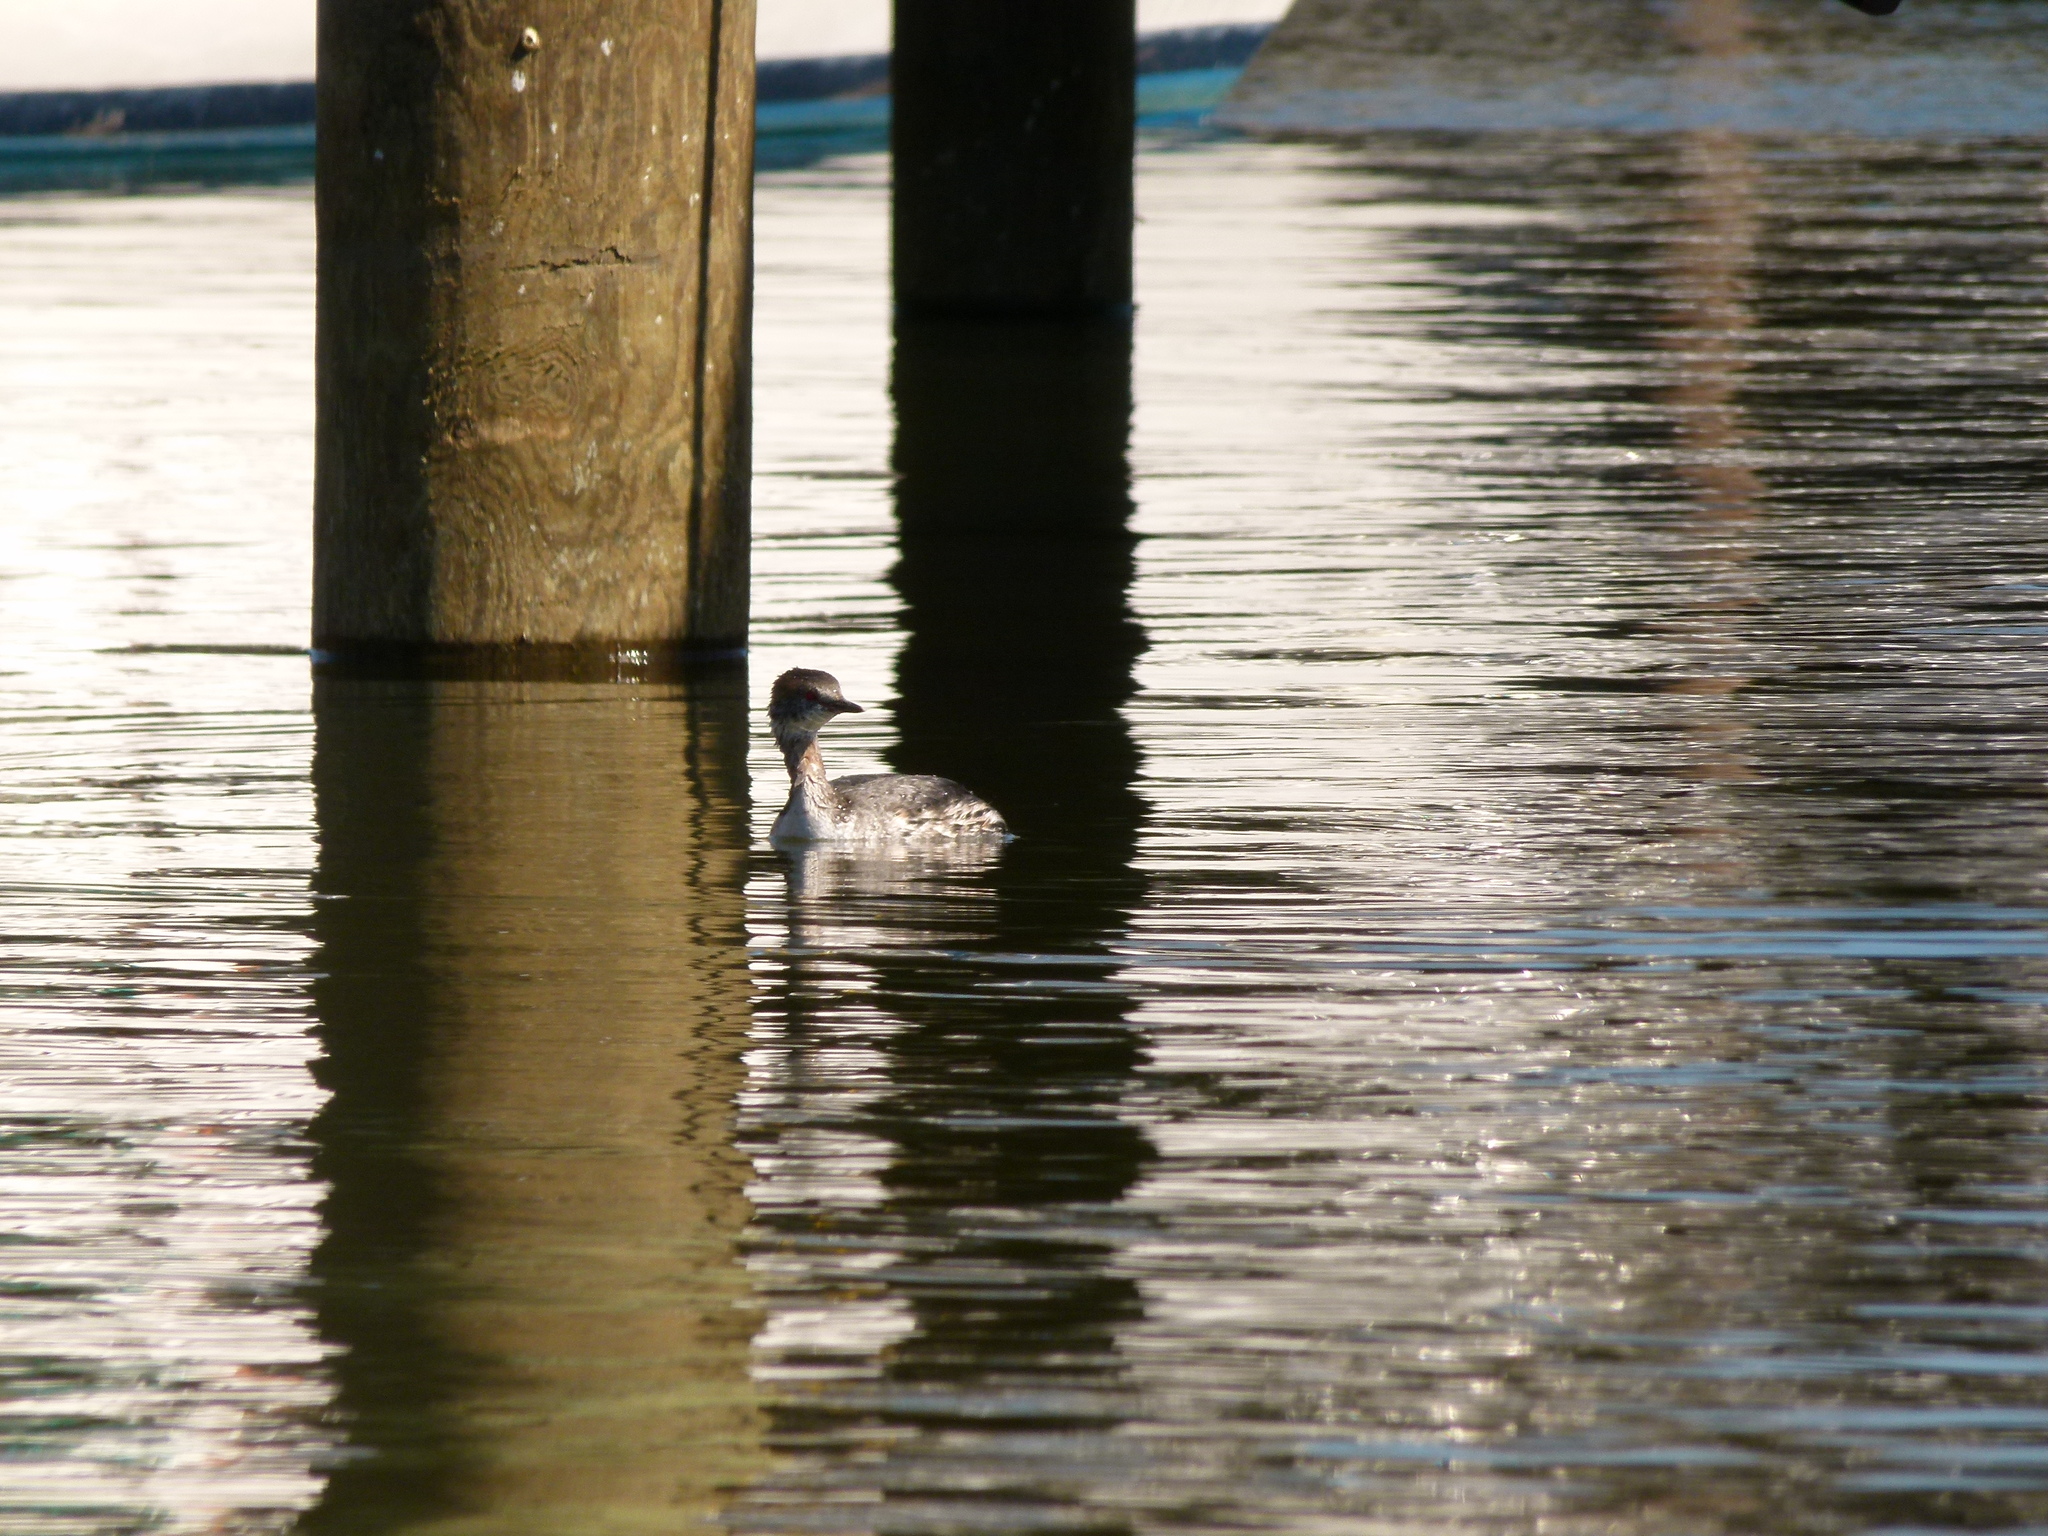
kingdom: Animalia
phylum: Chordata
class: Aves
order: Podicipediformes
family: Podicipedidae
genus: Podiceps
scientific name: Podiceps auritus
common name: Horned grebe
